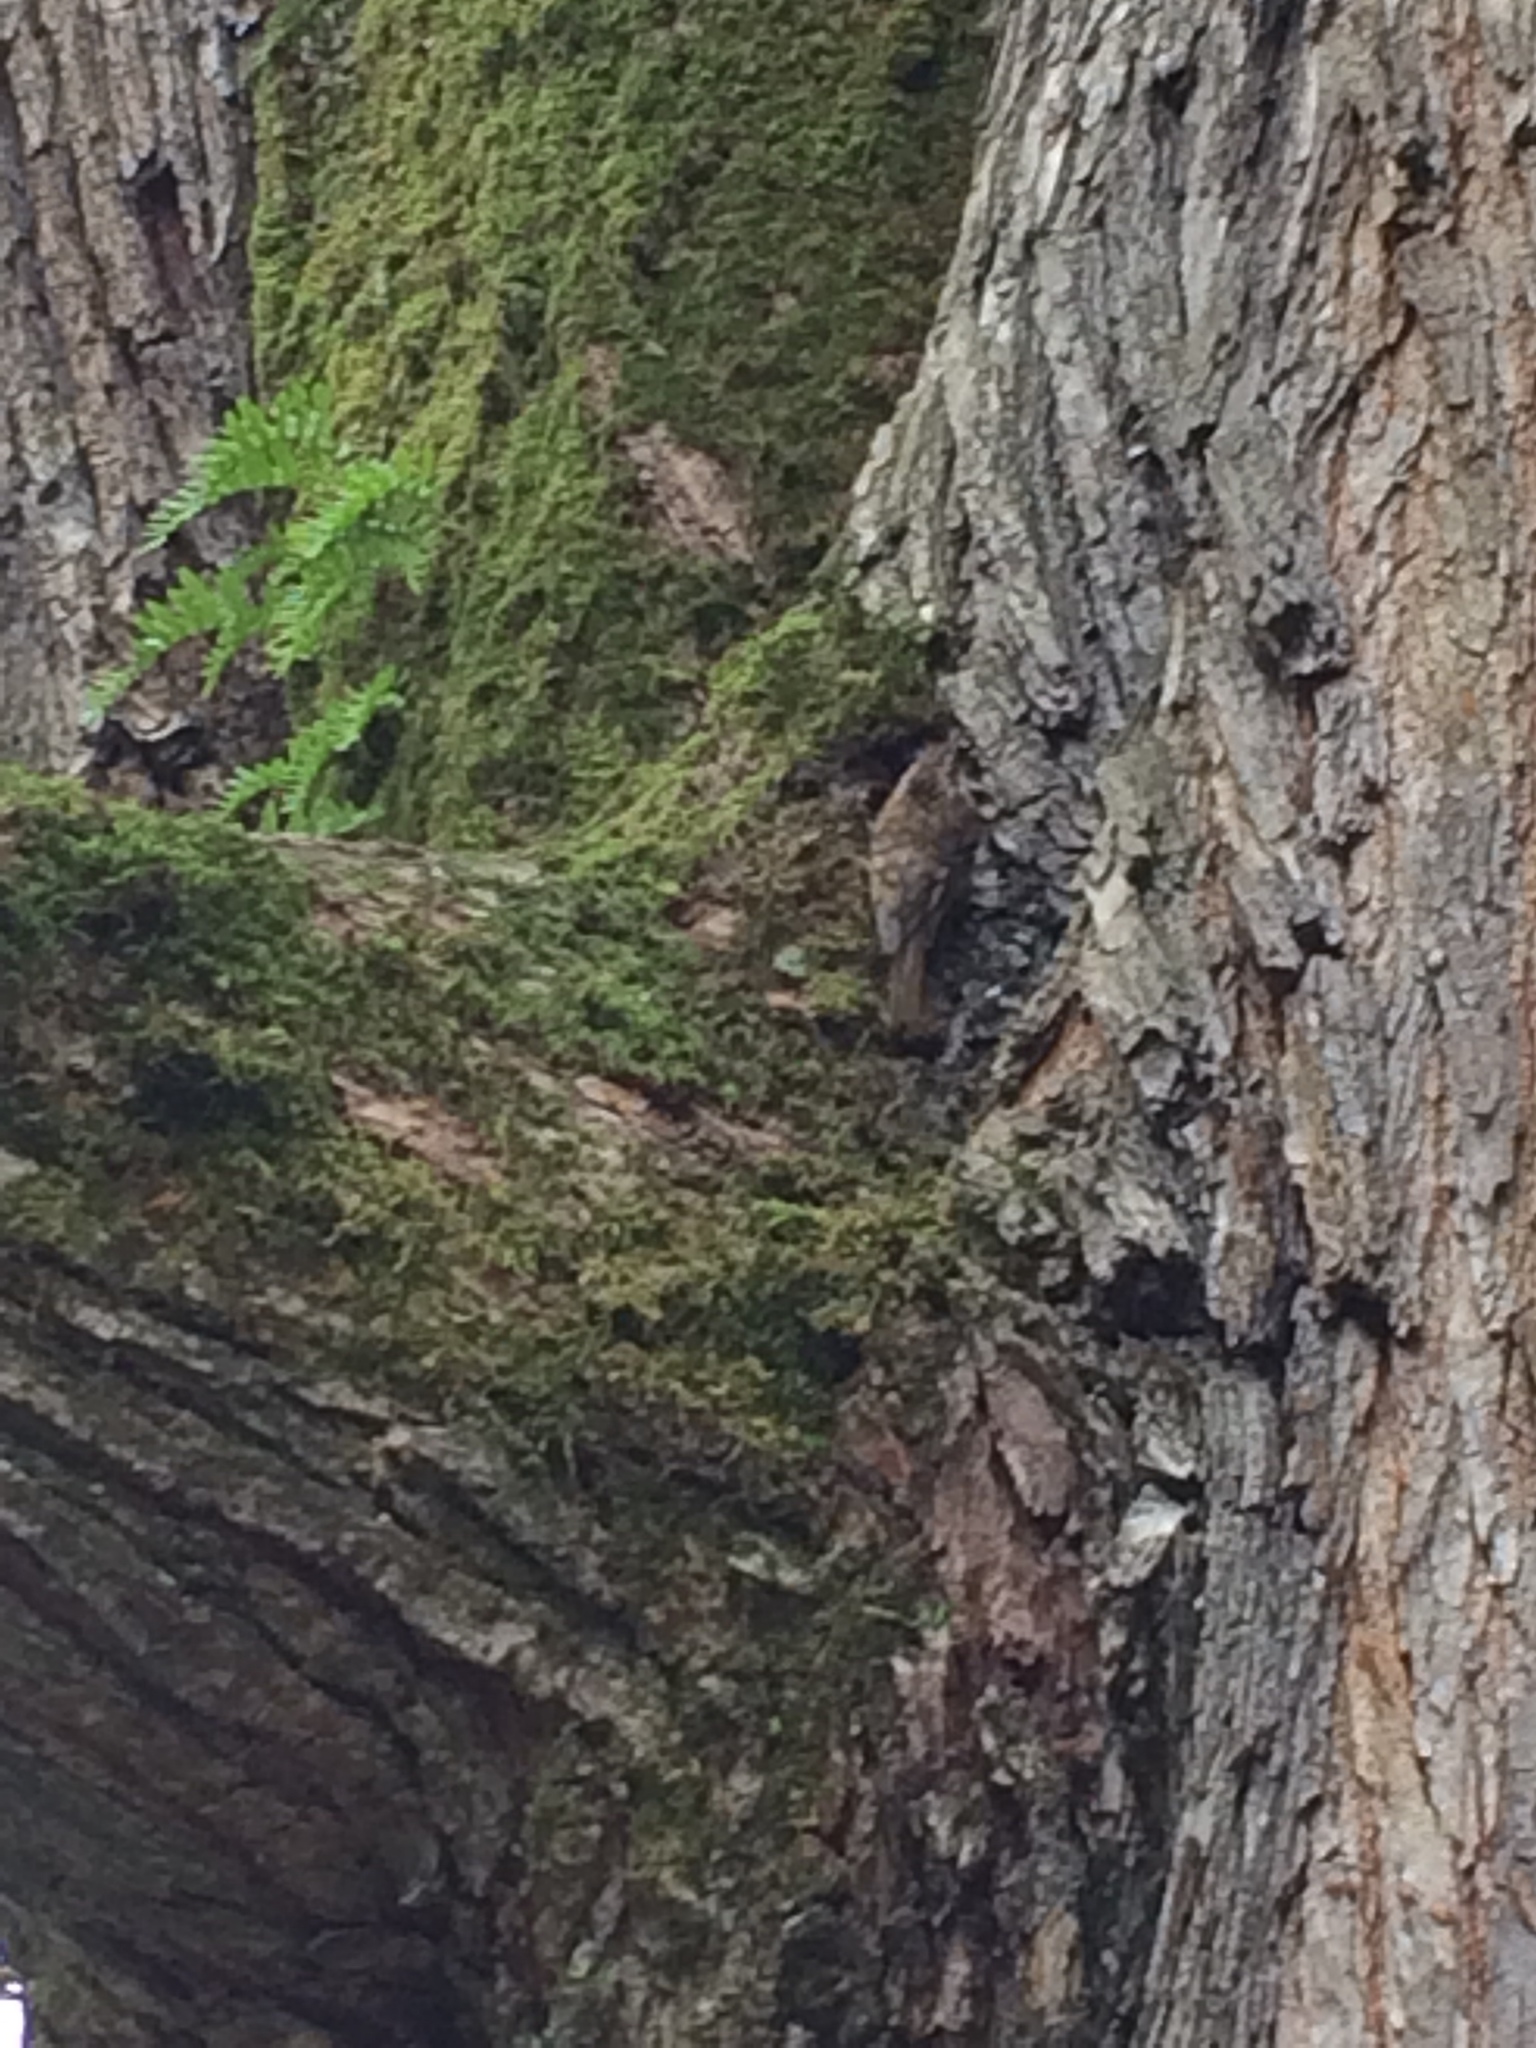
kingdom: Animalia
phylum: Chordata
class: Aves
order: Passeriformes
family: Certhiidae
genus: Certhia
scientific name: Certhia americana
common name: Brown creeper
